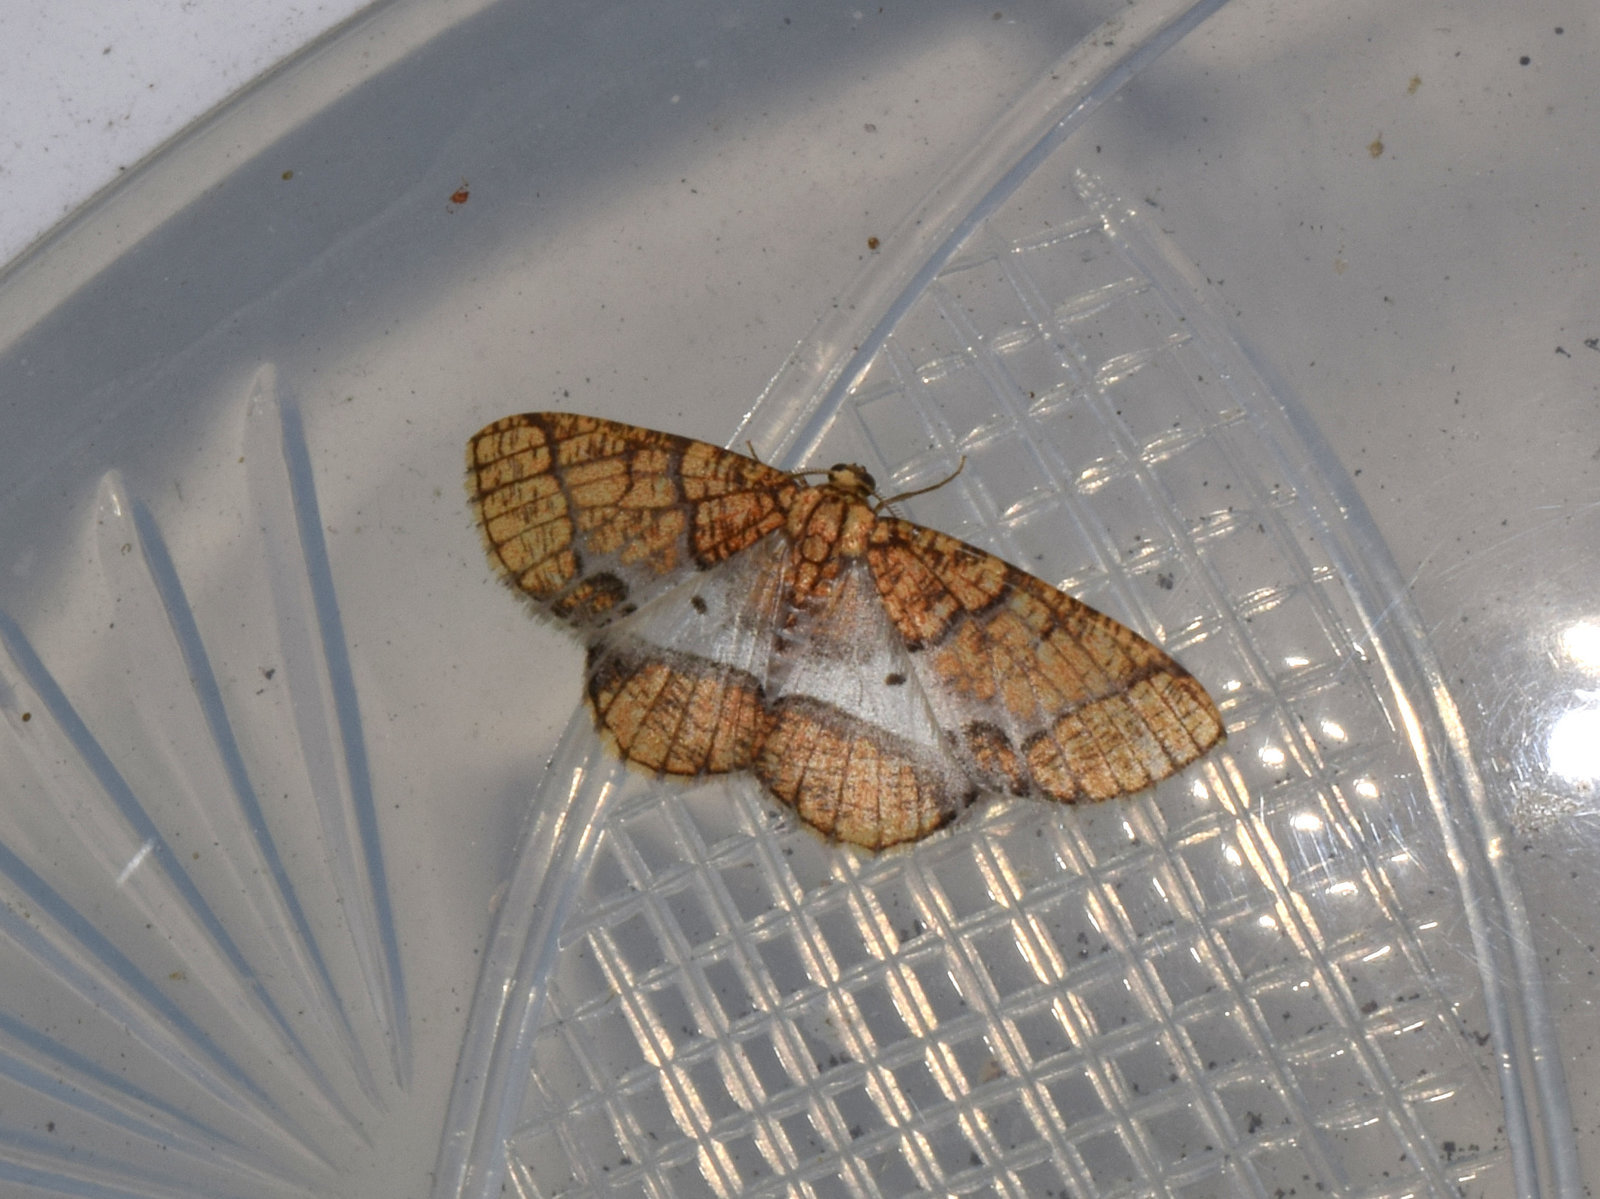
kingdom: Animalia
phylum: Arthropoda
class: Insecta
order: Lepidoptera
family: Geometridae
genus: Orthobrachia
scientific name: Orthobrachia flavidior
